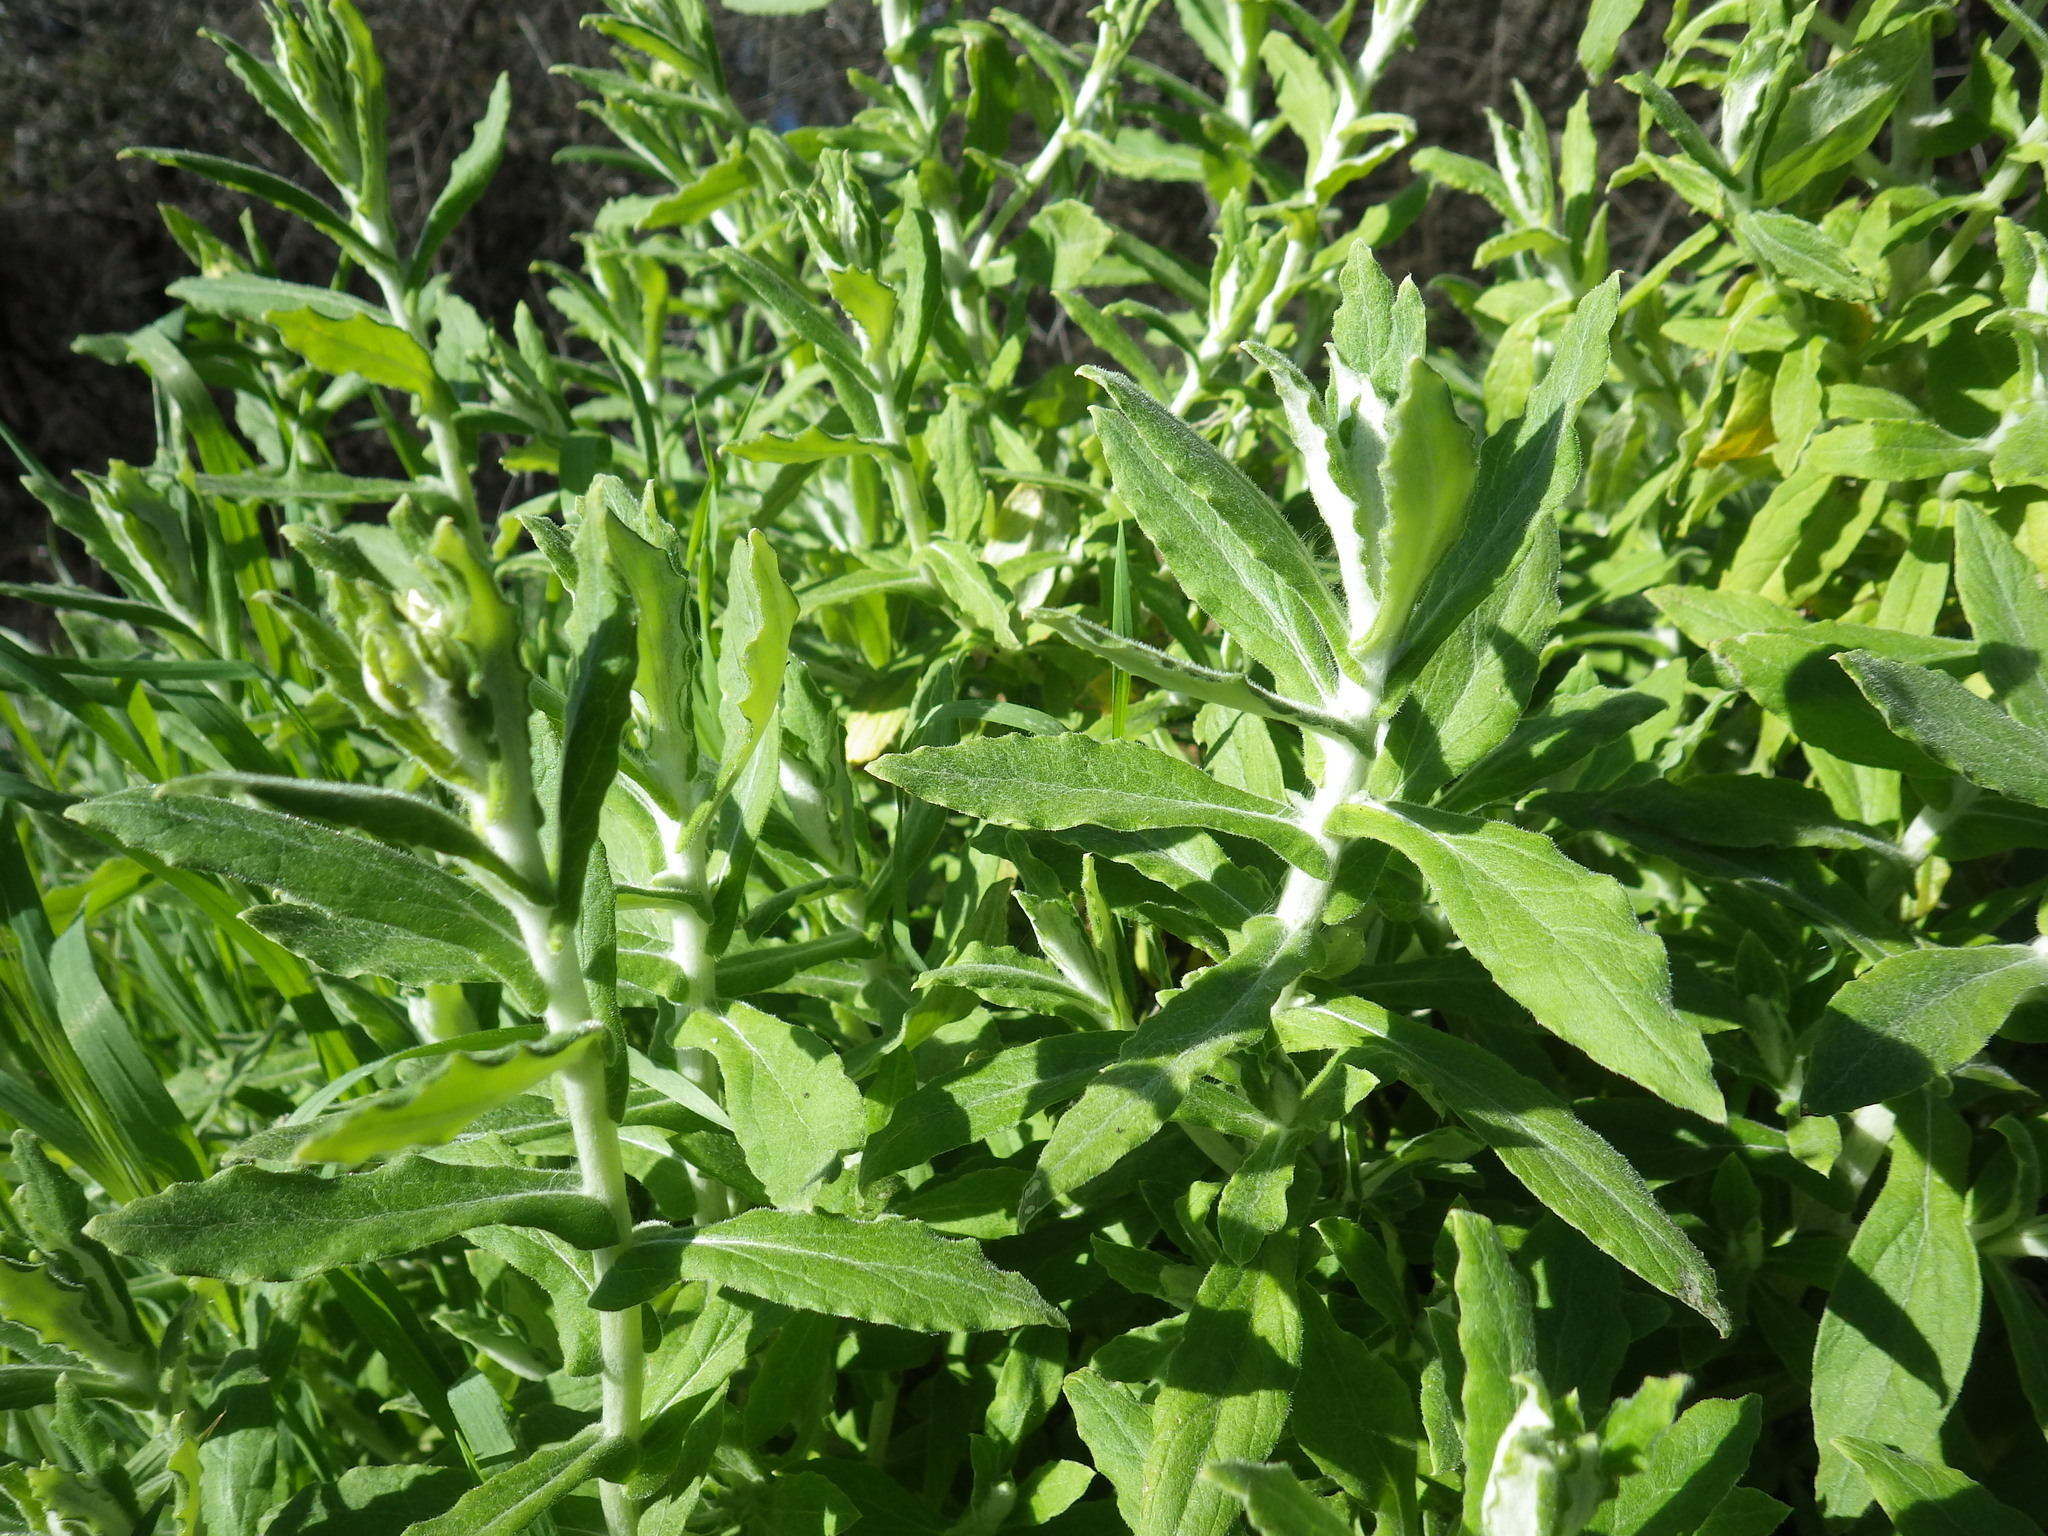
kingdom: Plantae
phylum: Tracheophyta
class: Magnoliopsida
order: Asterales
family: Asteraceae
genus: Pseudognaphalium
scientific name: Pseudognaphalium biolettii
